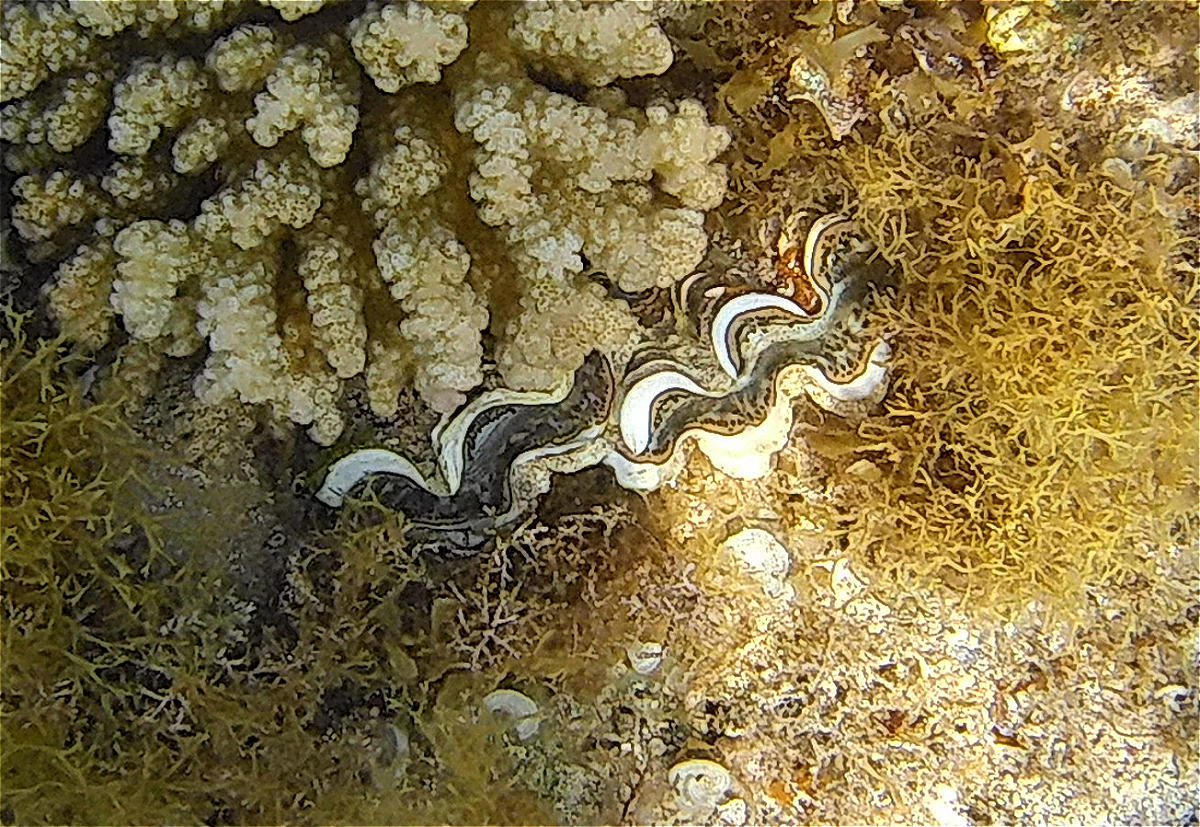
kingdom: Animalia
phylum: Mollusca
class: Bivalvia
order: Cardiida
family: Cardiidae
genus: Tridacna
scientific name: Tridacna maxima
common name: Small giant clam
